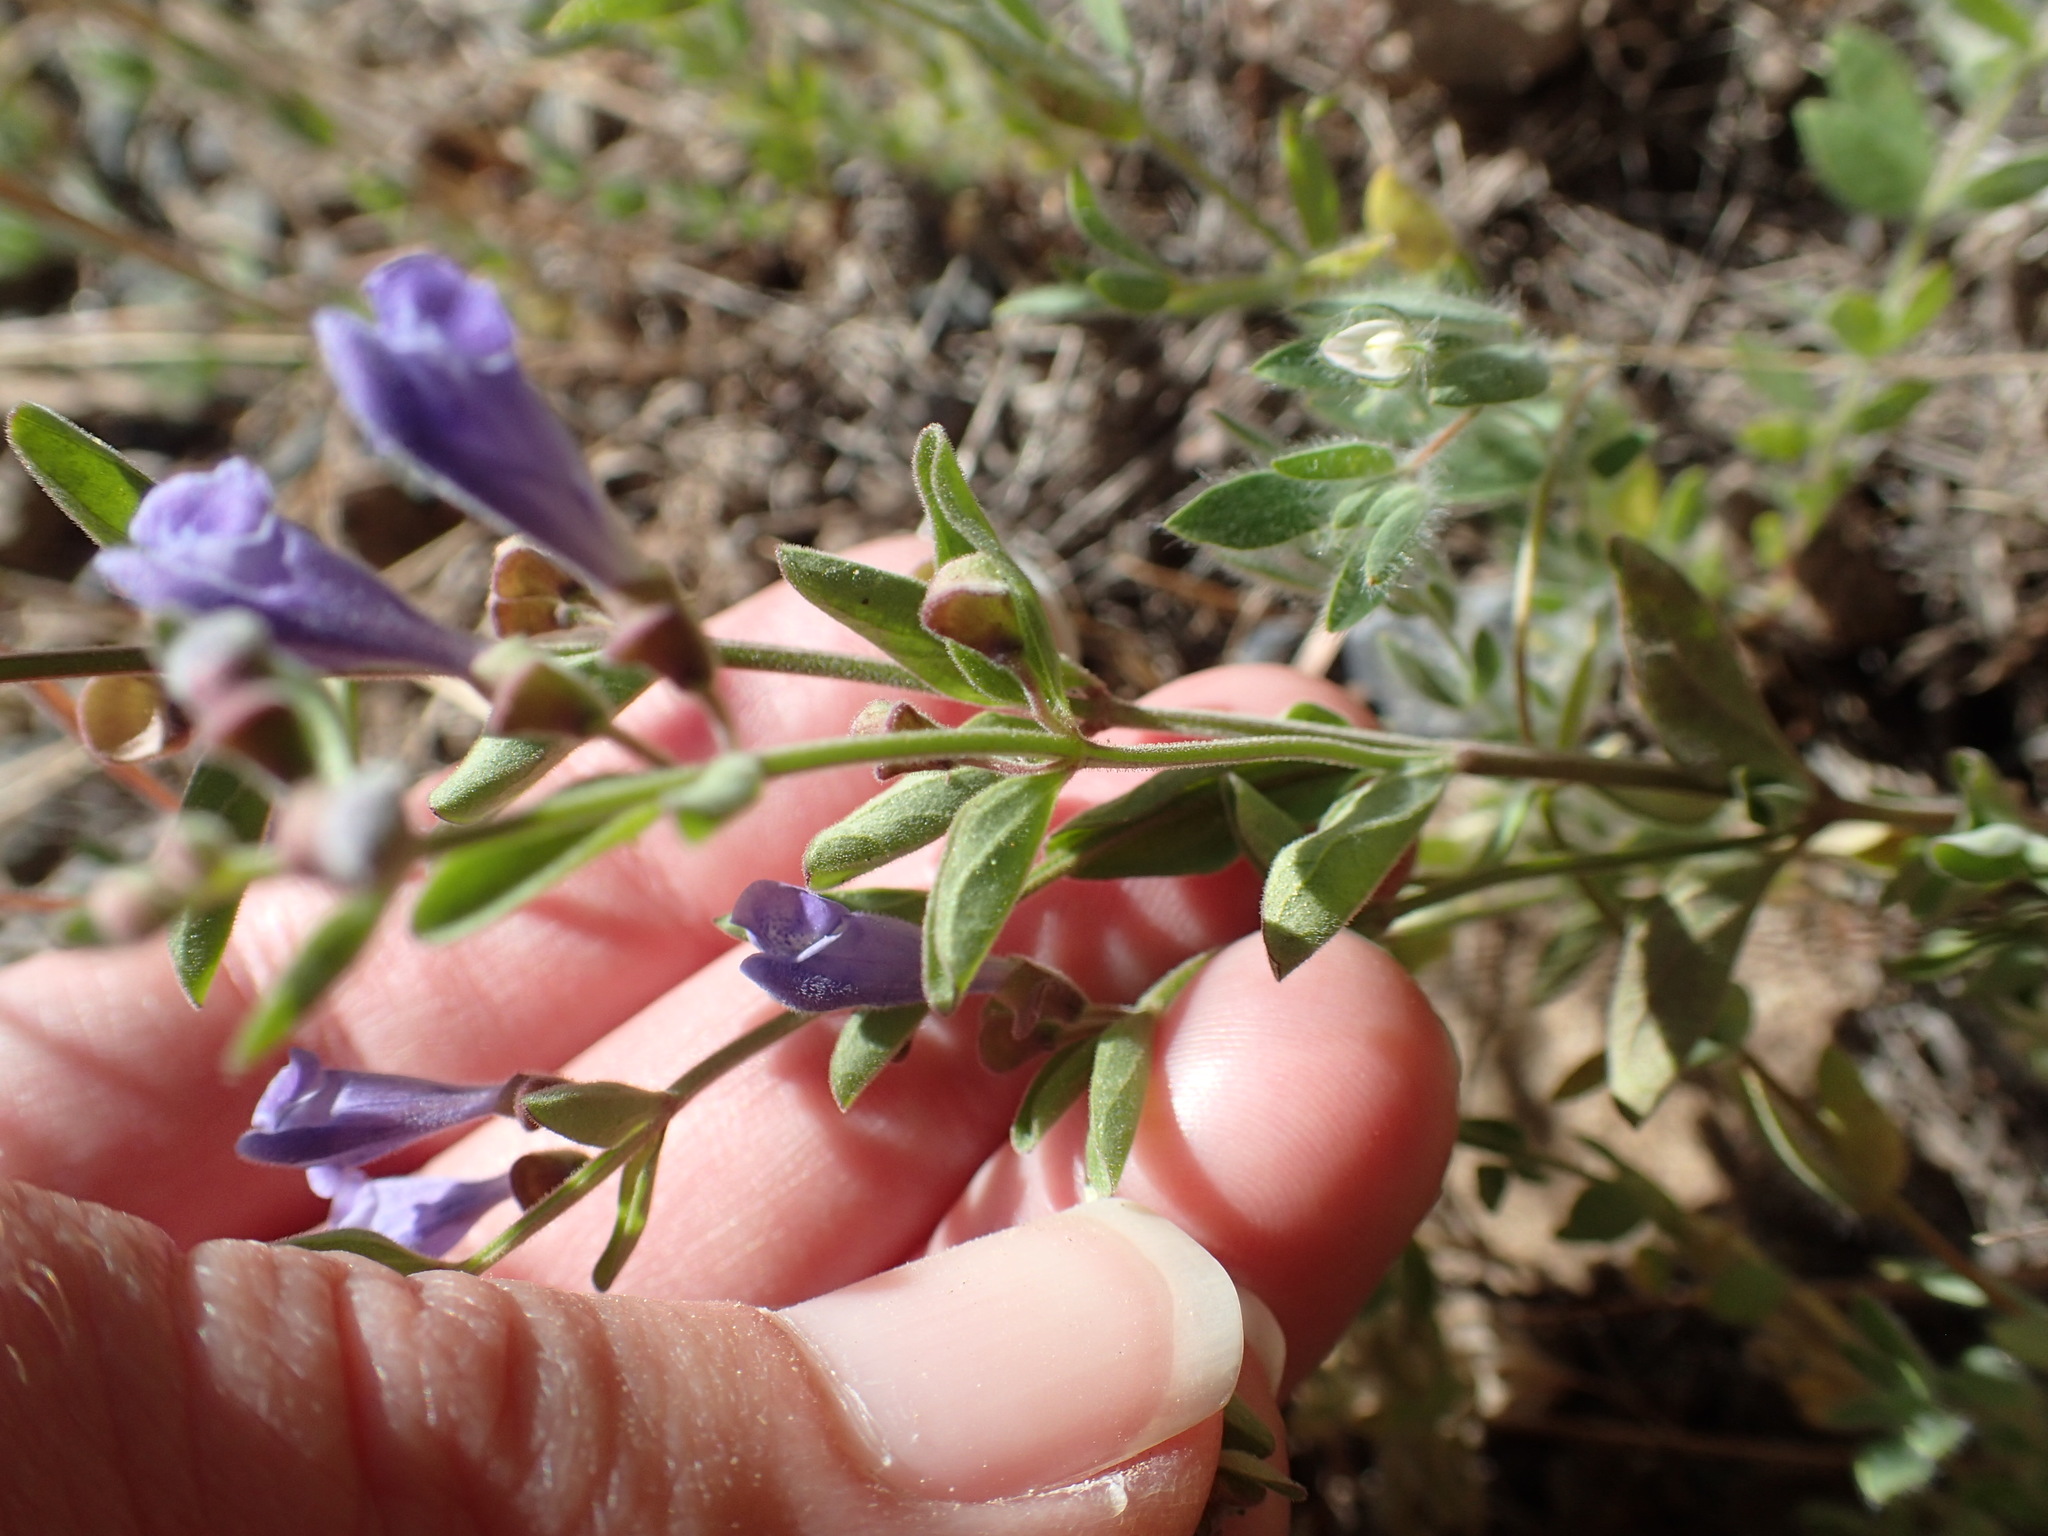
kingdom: Plantae
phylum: Tracheophyta
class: Magnoliopsida
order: Lamiales
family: Lamiaceae
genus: Scutellaria
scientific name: Scutellaria antirrhinoides
